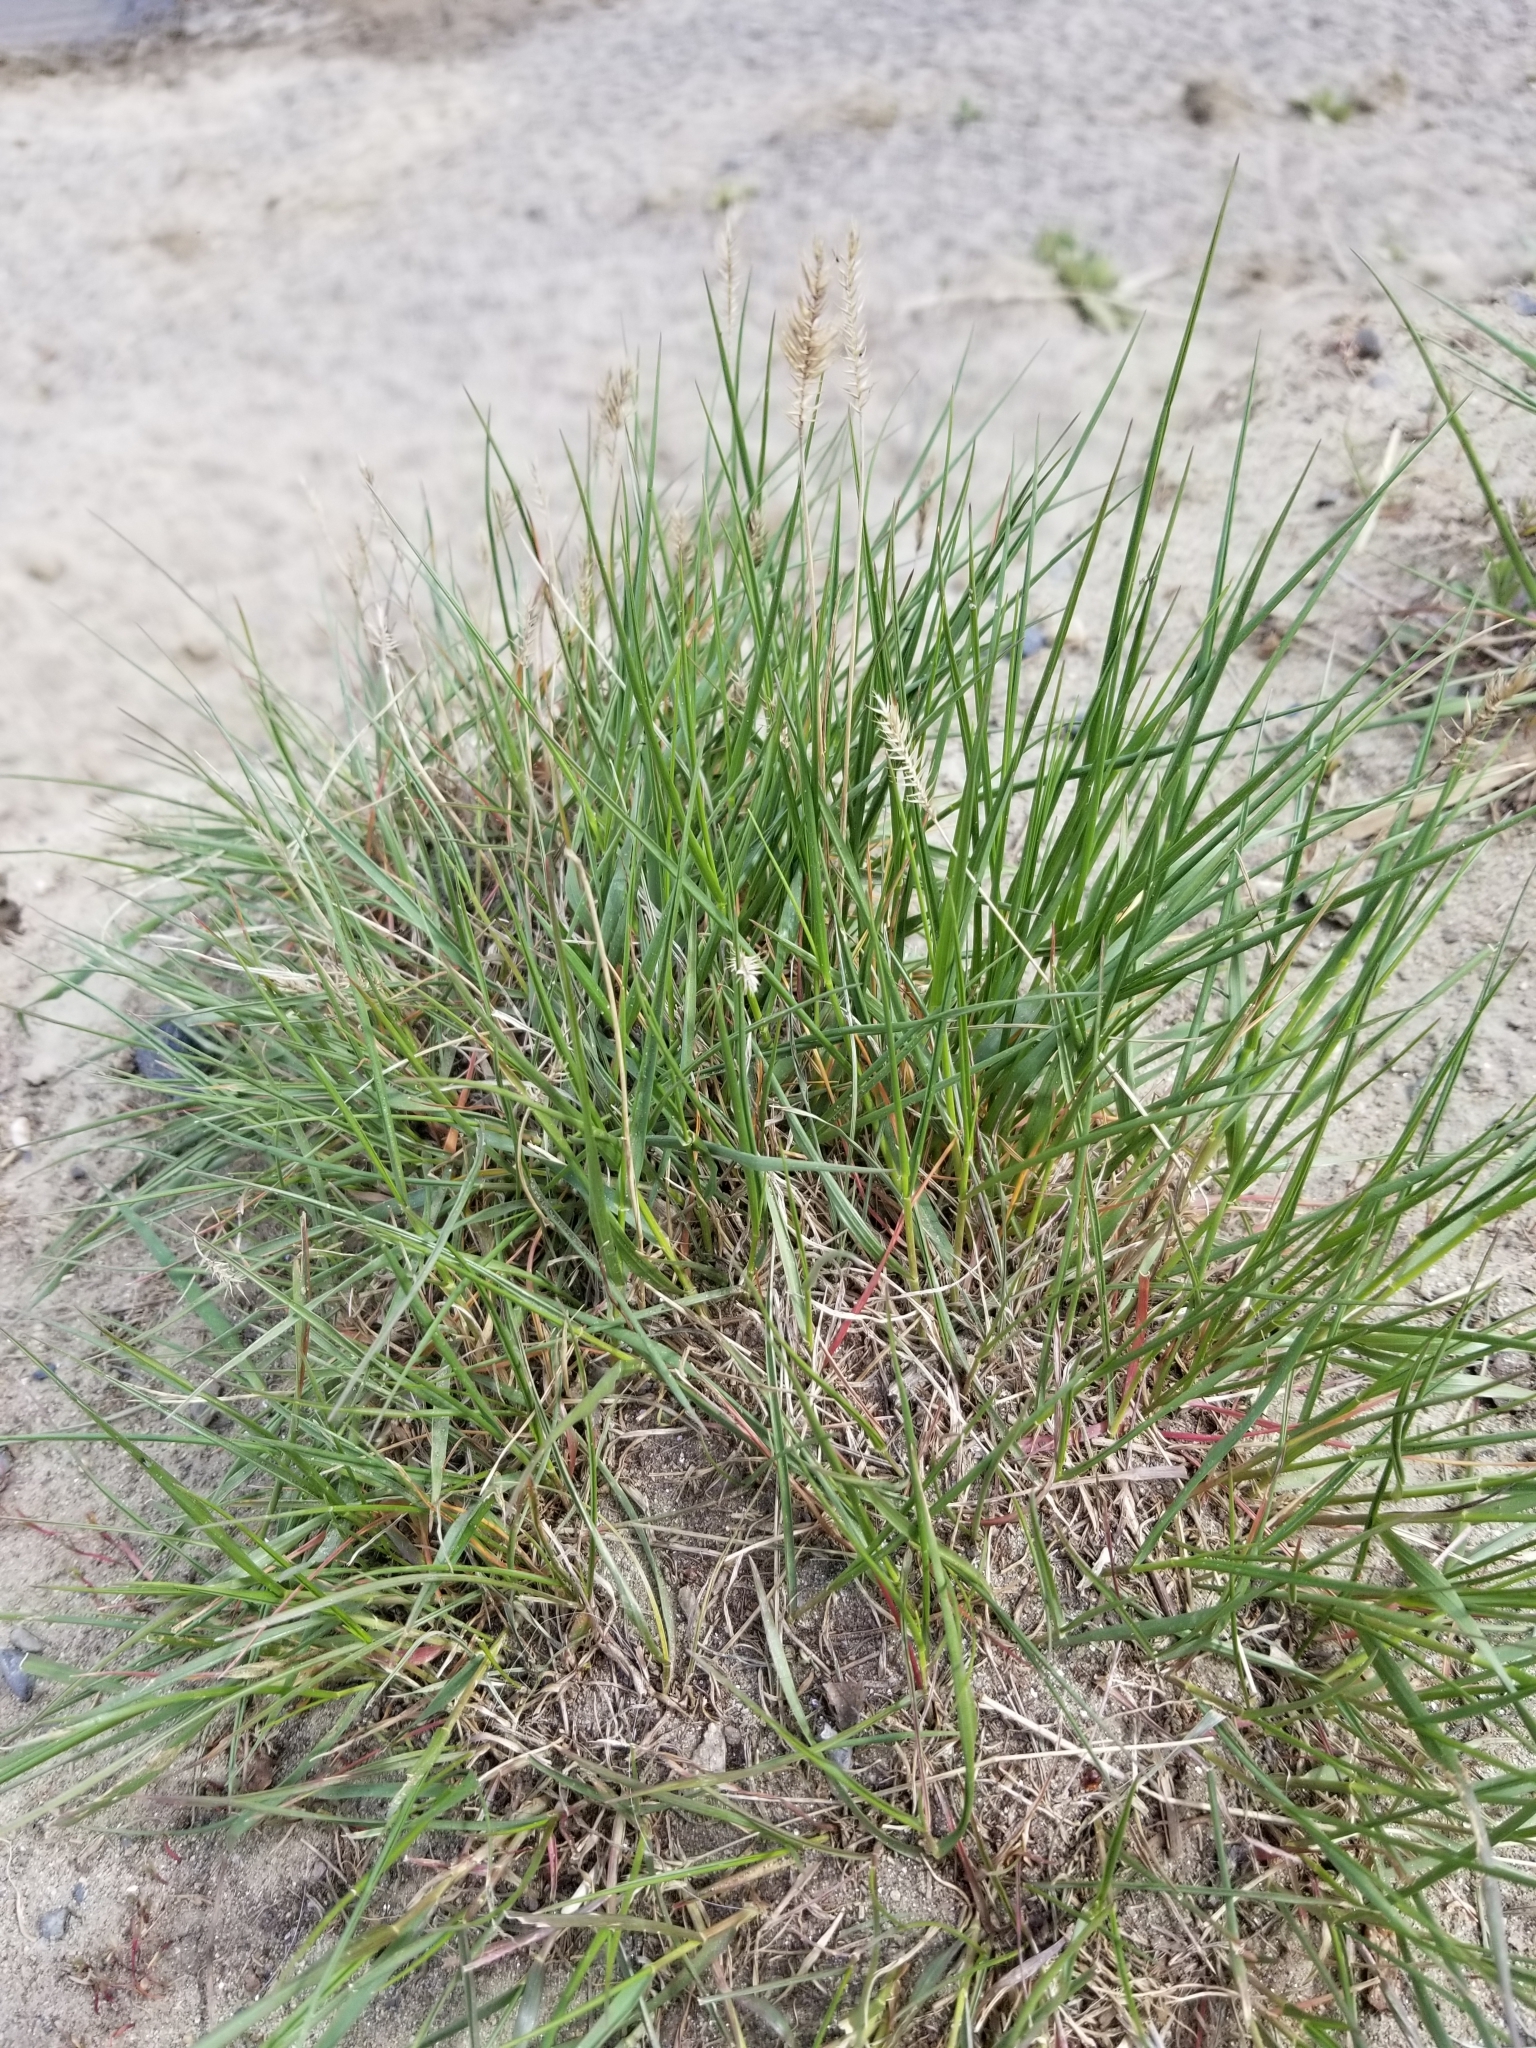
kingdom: Plantae
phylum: Tracheophyta
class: Liliopsida
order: Poales
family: Poaceae
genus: Agropyron
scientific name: Agropyron cristatum
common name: Crested wheatgrass
